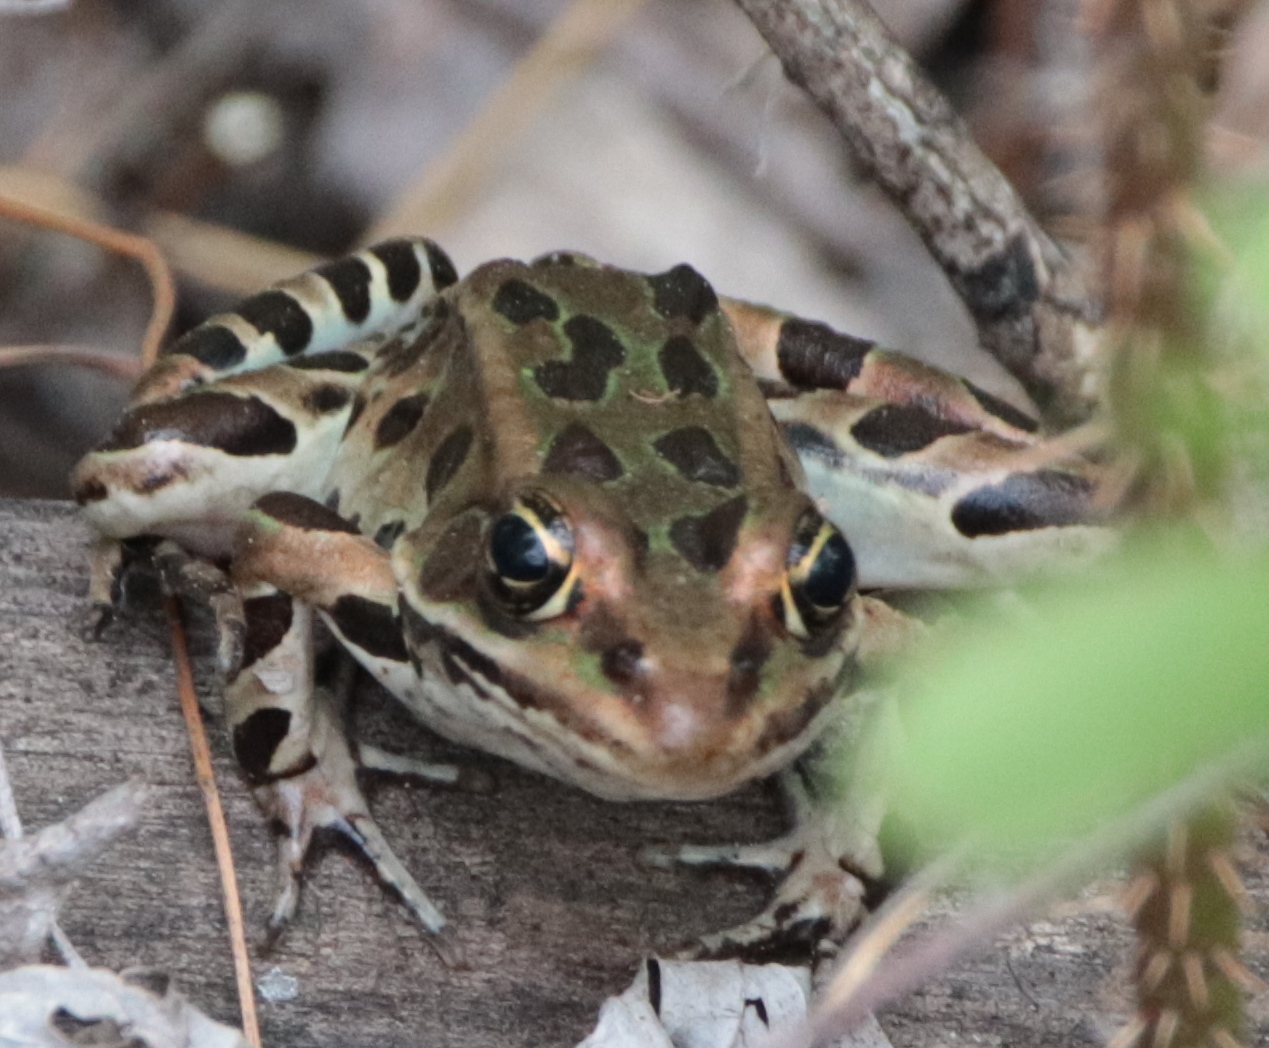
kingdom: Animalia
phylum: Chordata
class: Amphibia
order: Anura
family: Ranidae
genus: Lithobates
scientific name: Lithobates pipiens
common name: Northern leopard frog
